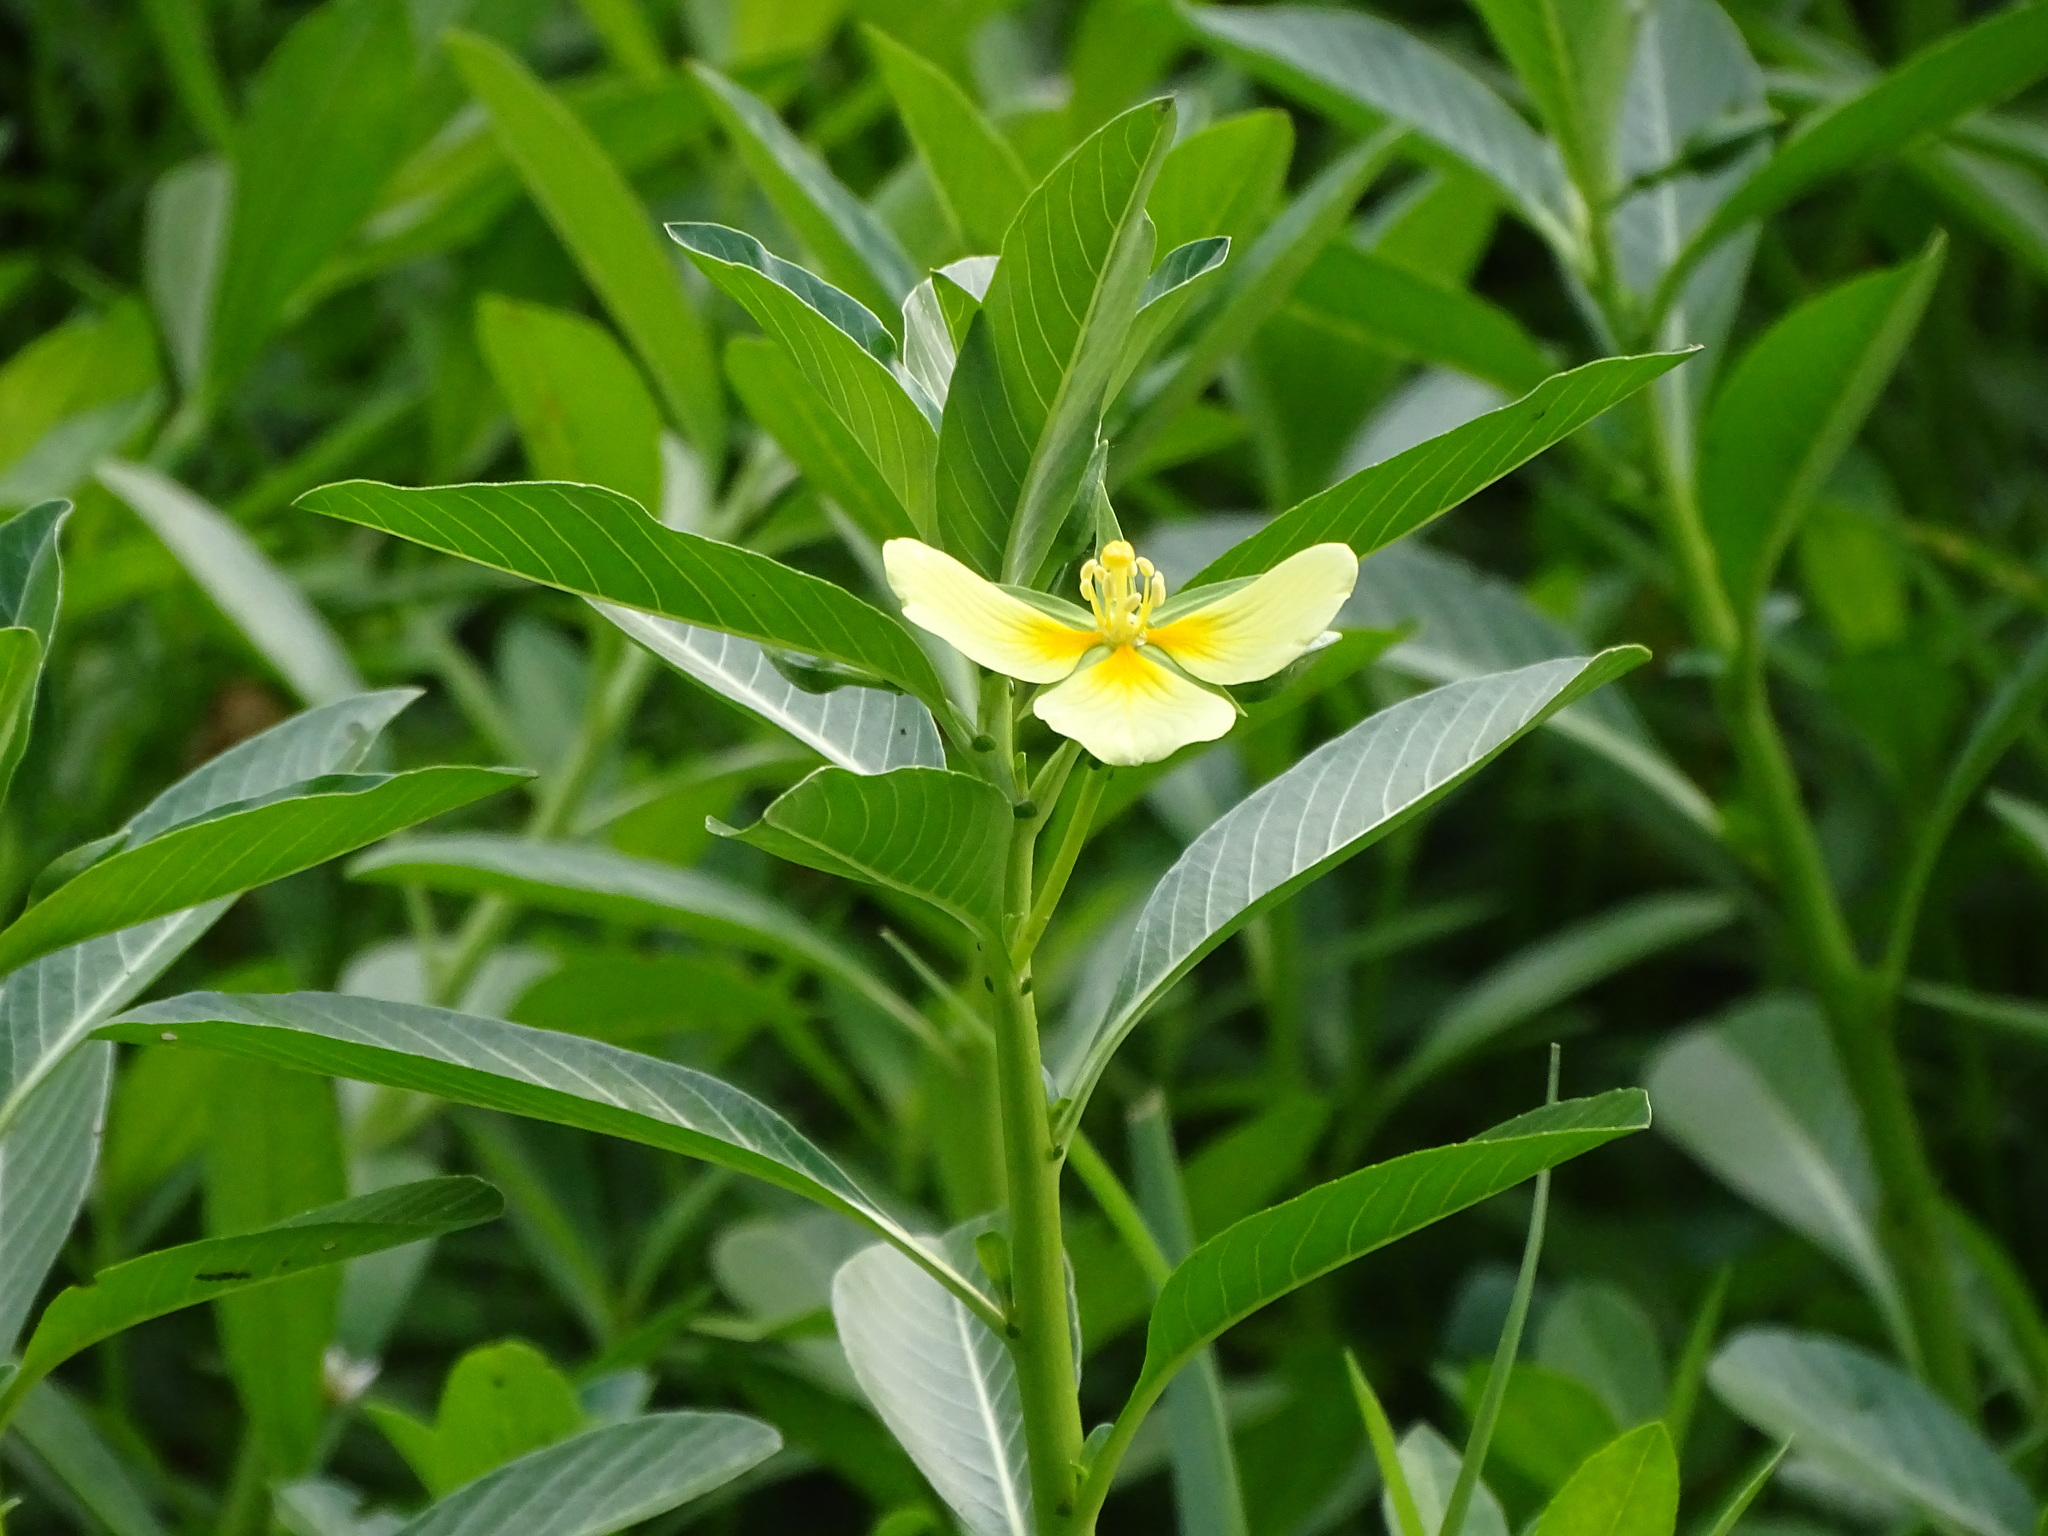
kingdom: Plantae
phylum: Tracheophyta
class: Magnoliopsida
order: Myrtales
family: Onagraceae
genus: Ludwigia
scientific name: Ludwigia taiwanensis
